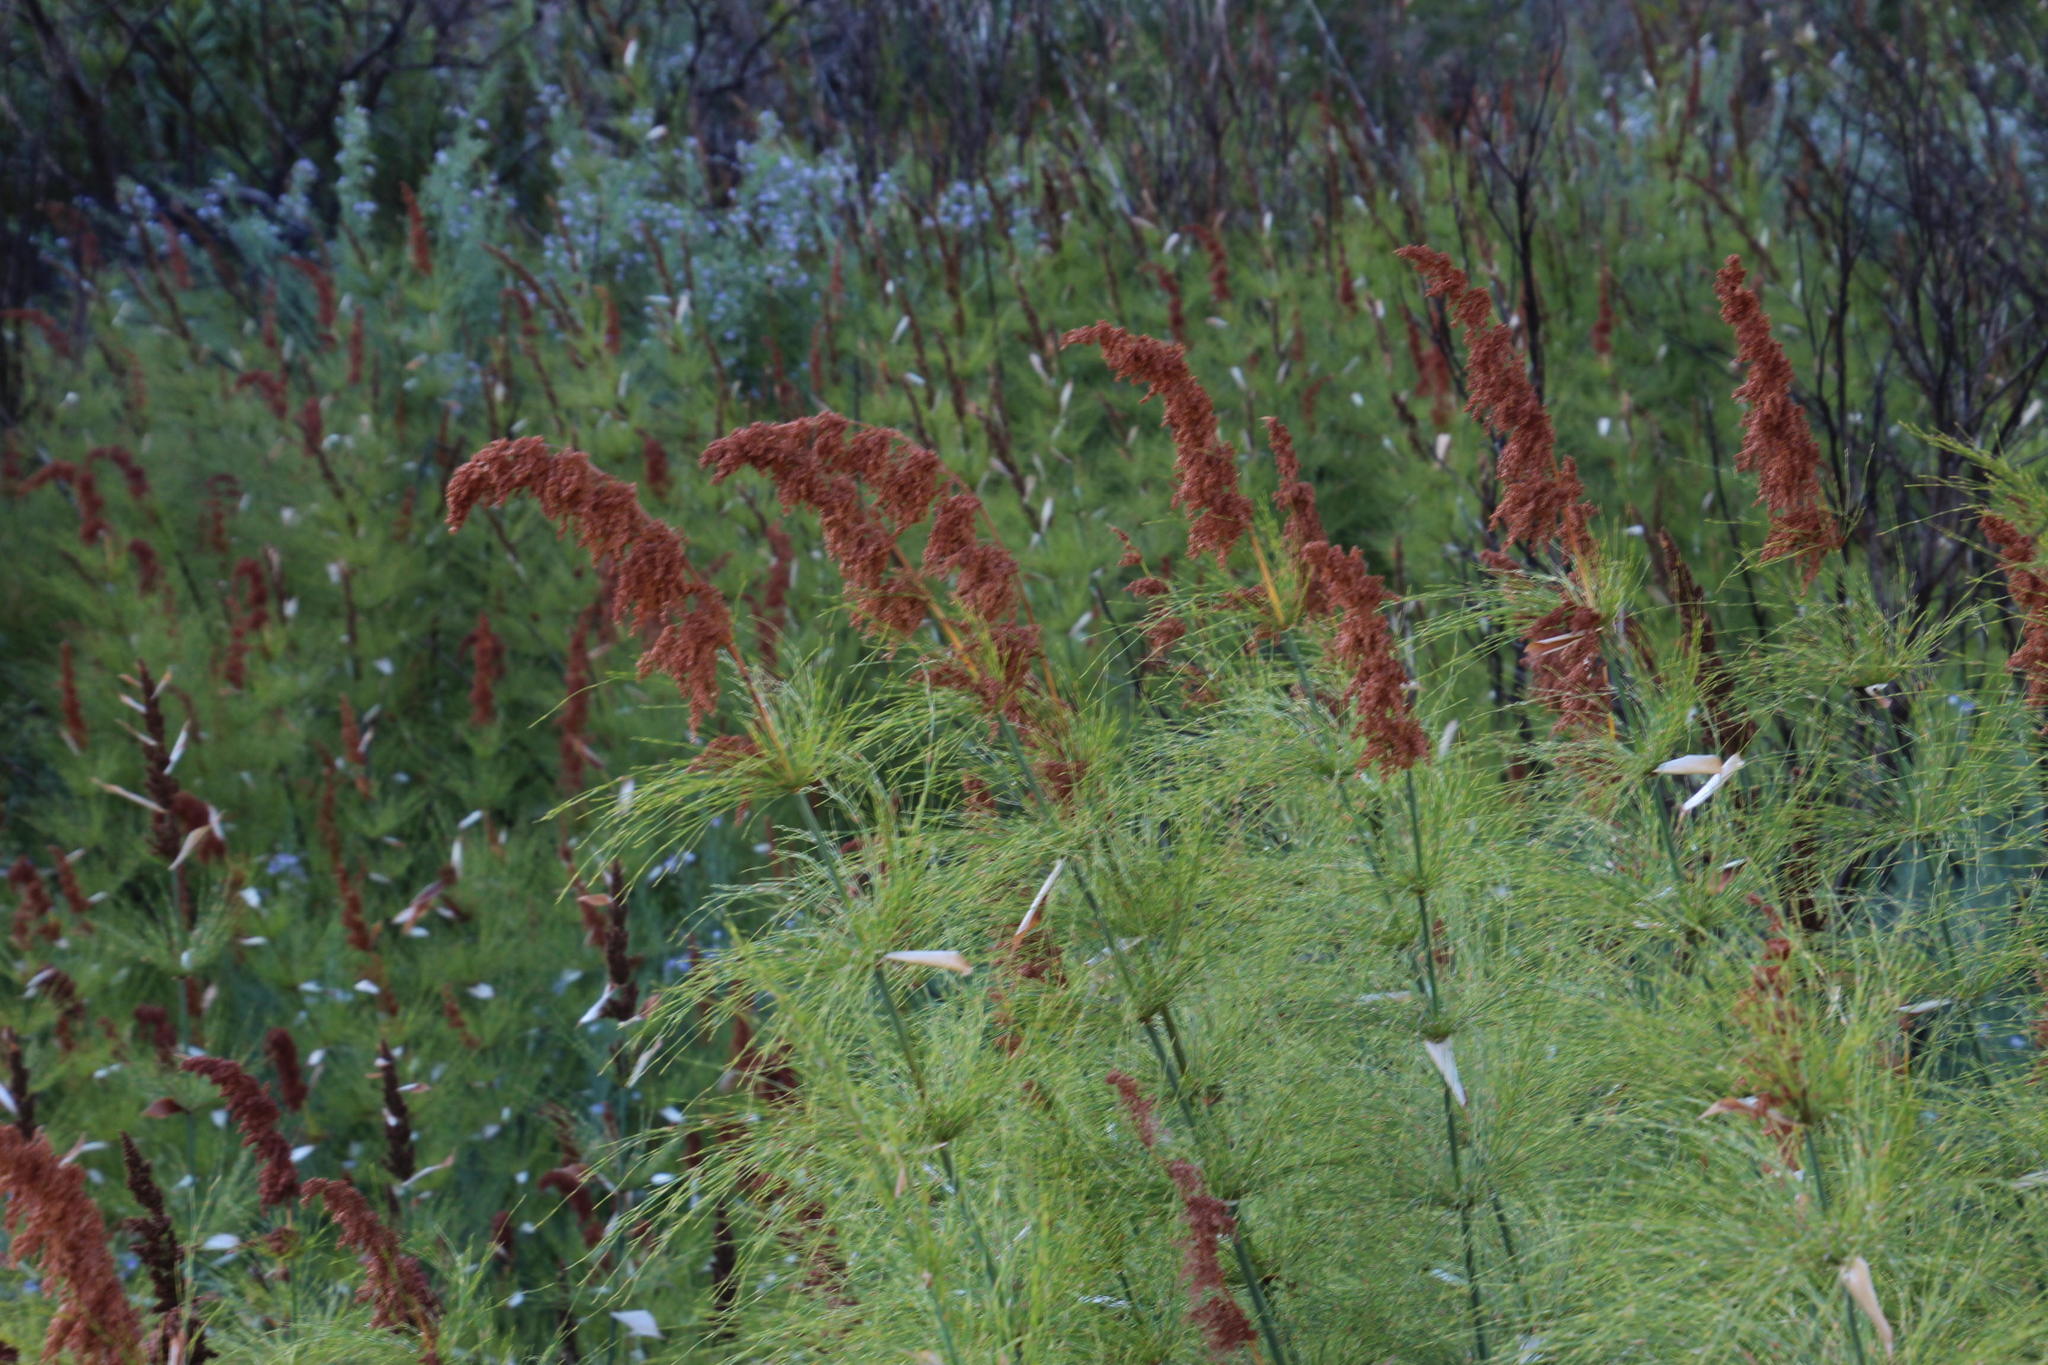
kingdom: Plantae
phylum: Tracheophyta
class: Liliopsida
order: Poales
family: Restionaceae
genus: Elegia
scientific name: Elegia capensis
